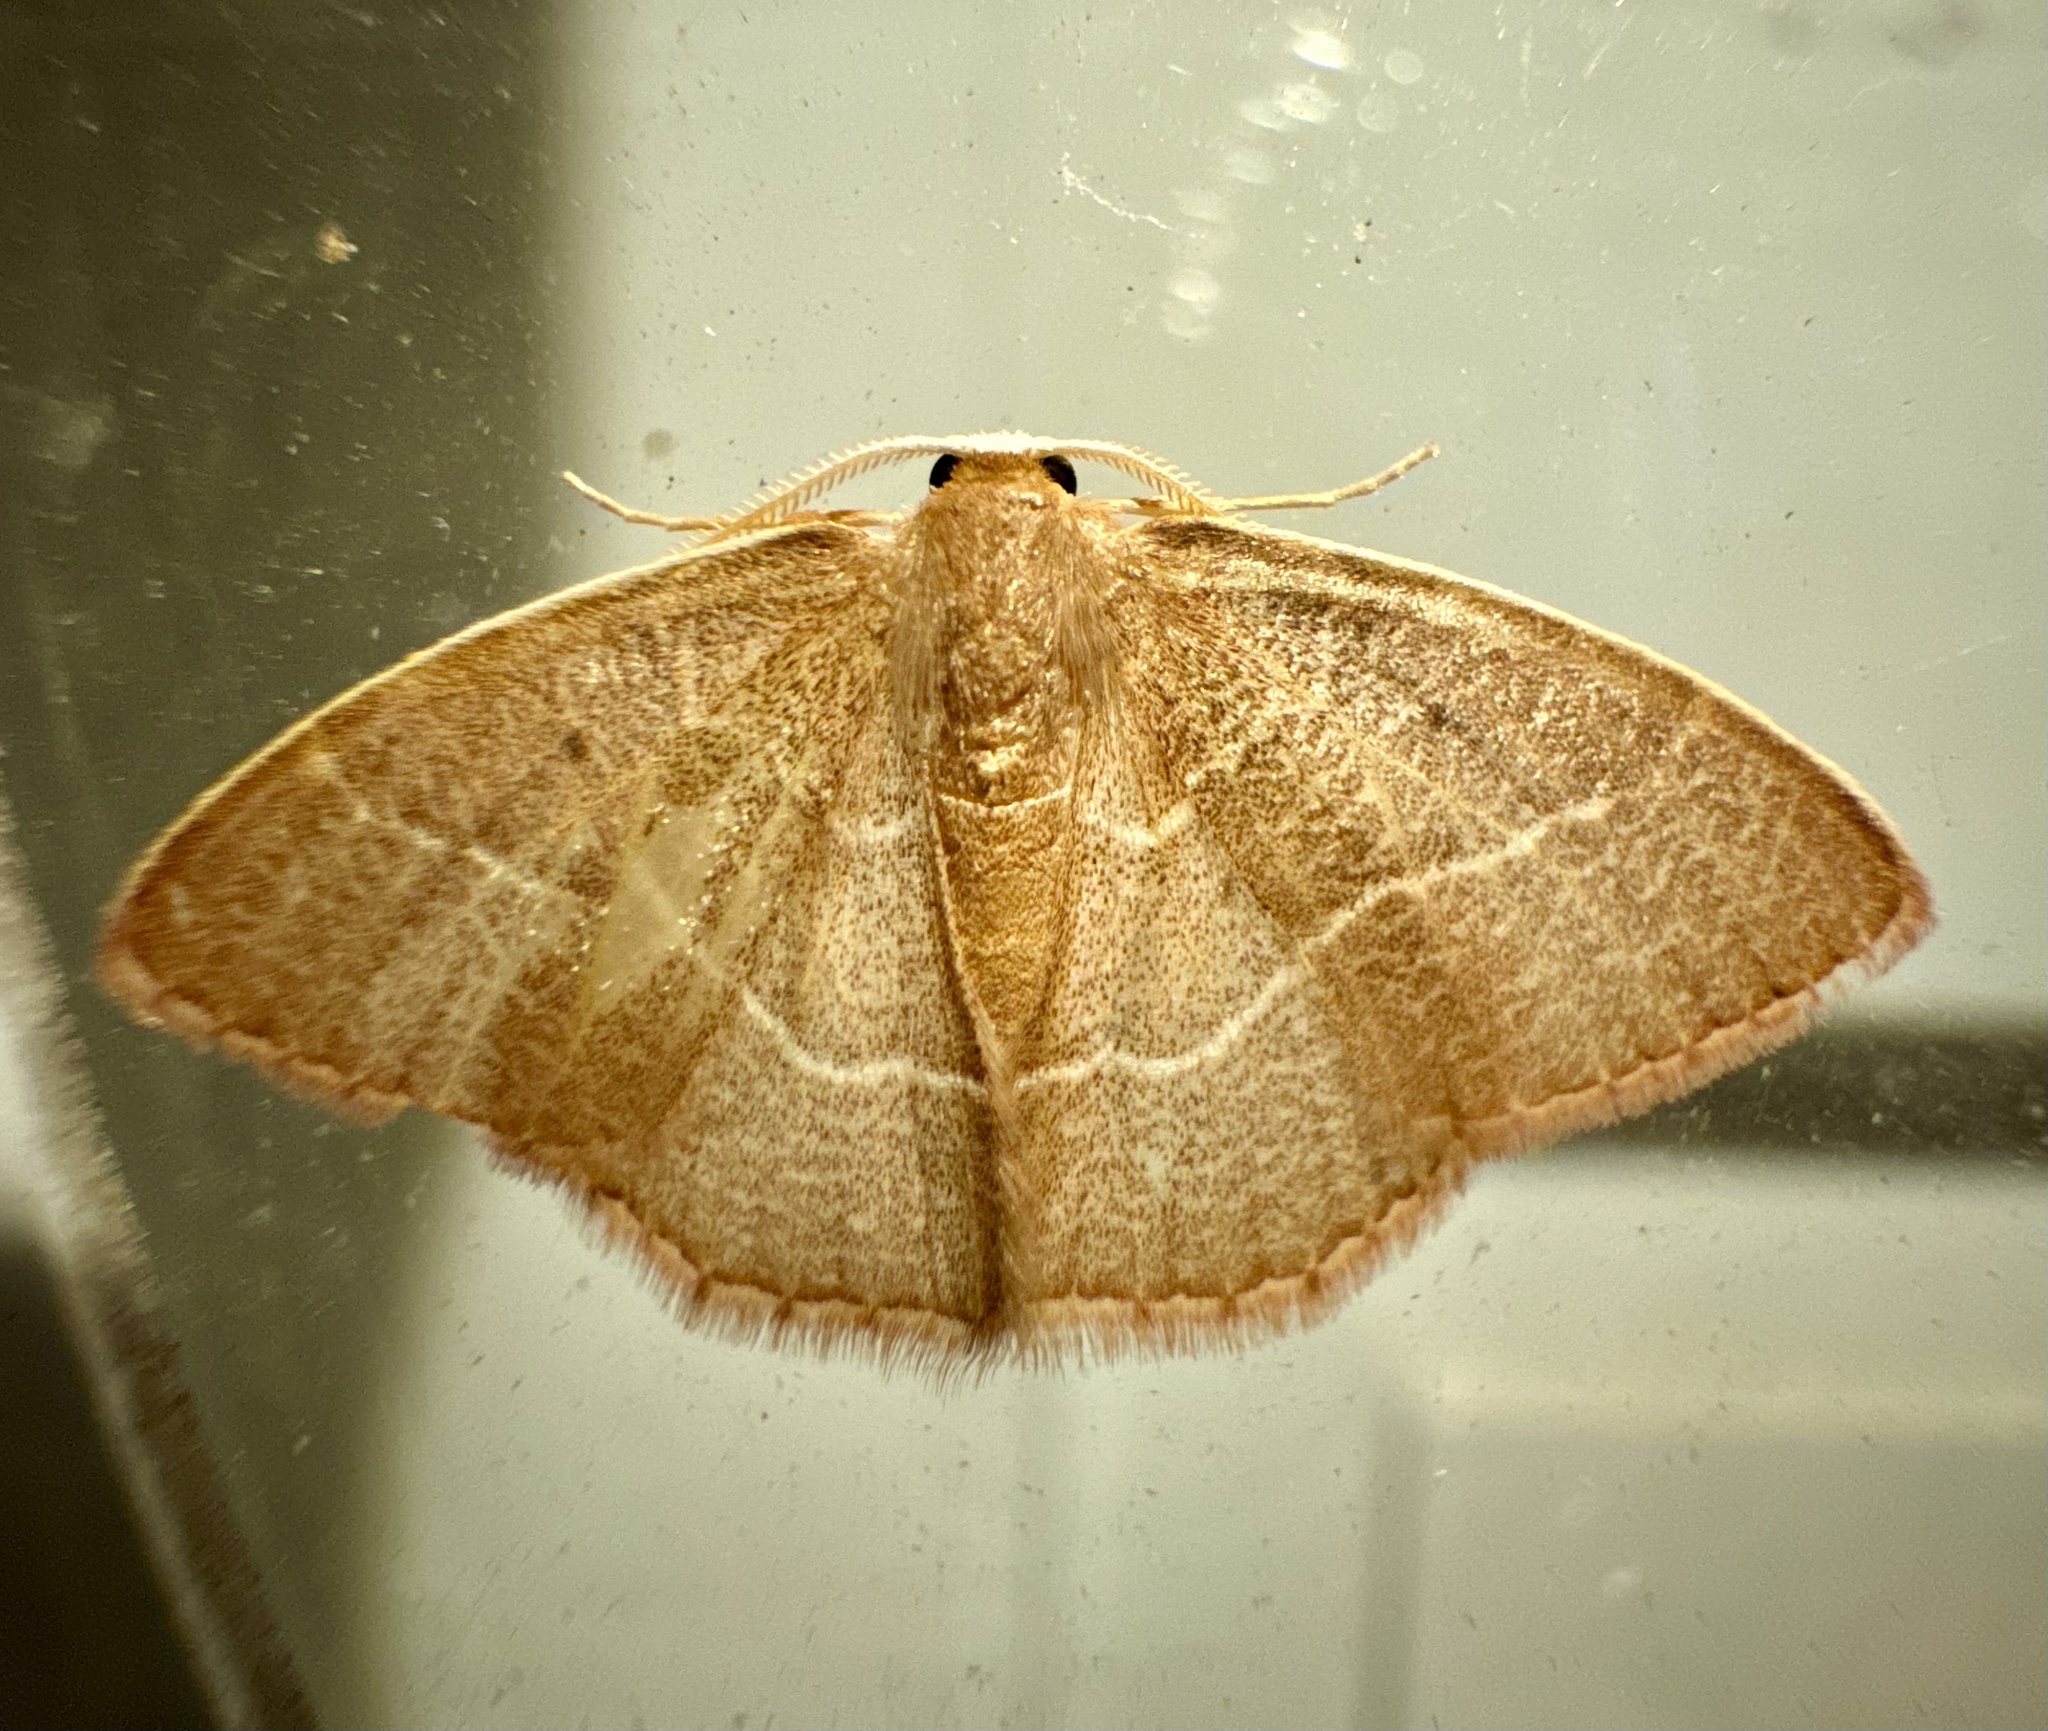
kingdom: Animalia
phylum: Arthropoda
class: Insecta
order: Lepidoptera
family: Geometridae
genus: Nemoria
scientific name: Nemoria bistriaria
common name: Red-fringed emerald
